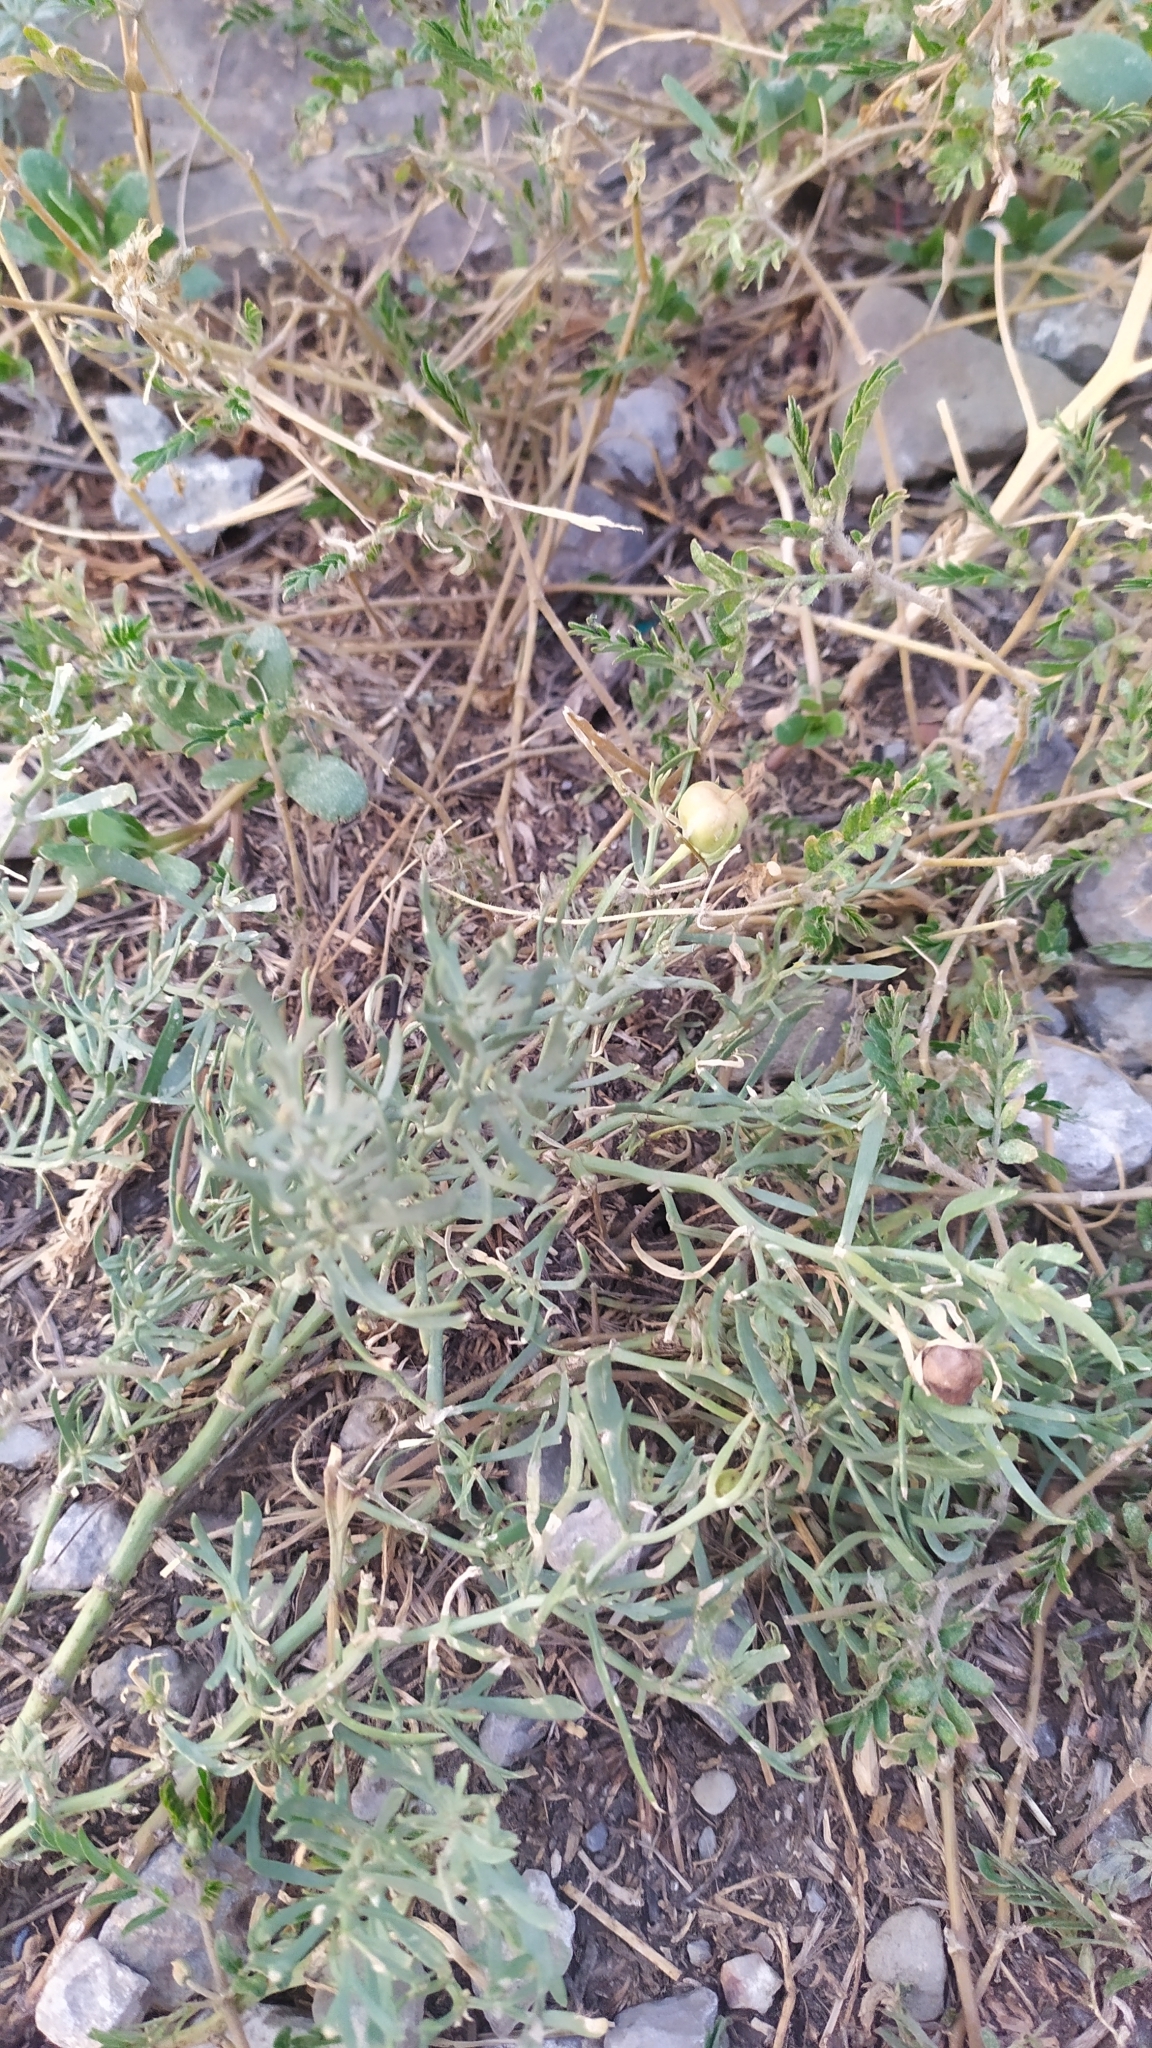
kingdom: Plantae
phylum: Tracheophyta
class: Magnoliopsida
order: Sapindales
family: Tetradiclidaceae
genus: Peganum
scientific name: Peganum harmala
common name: Harmal peganum
